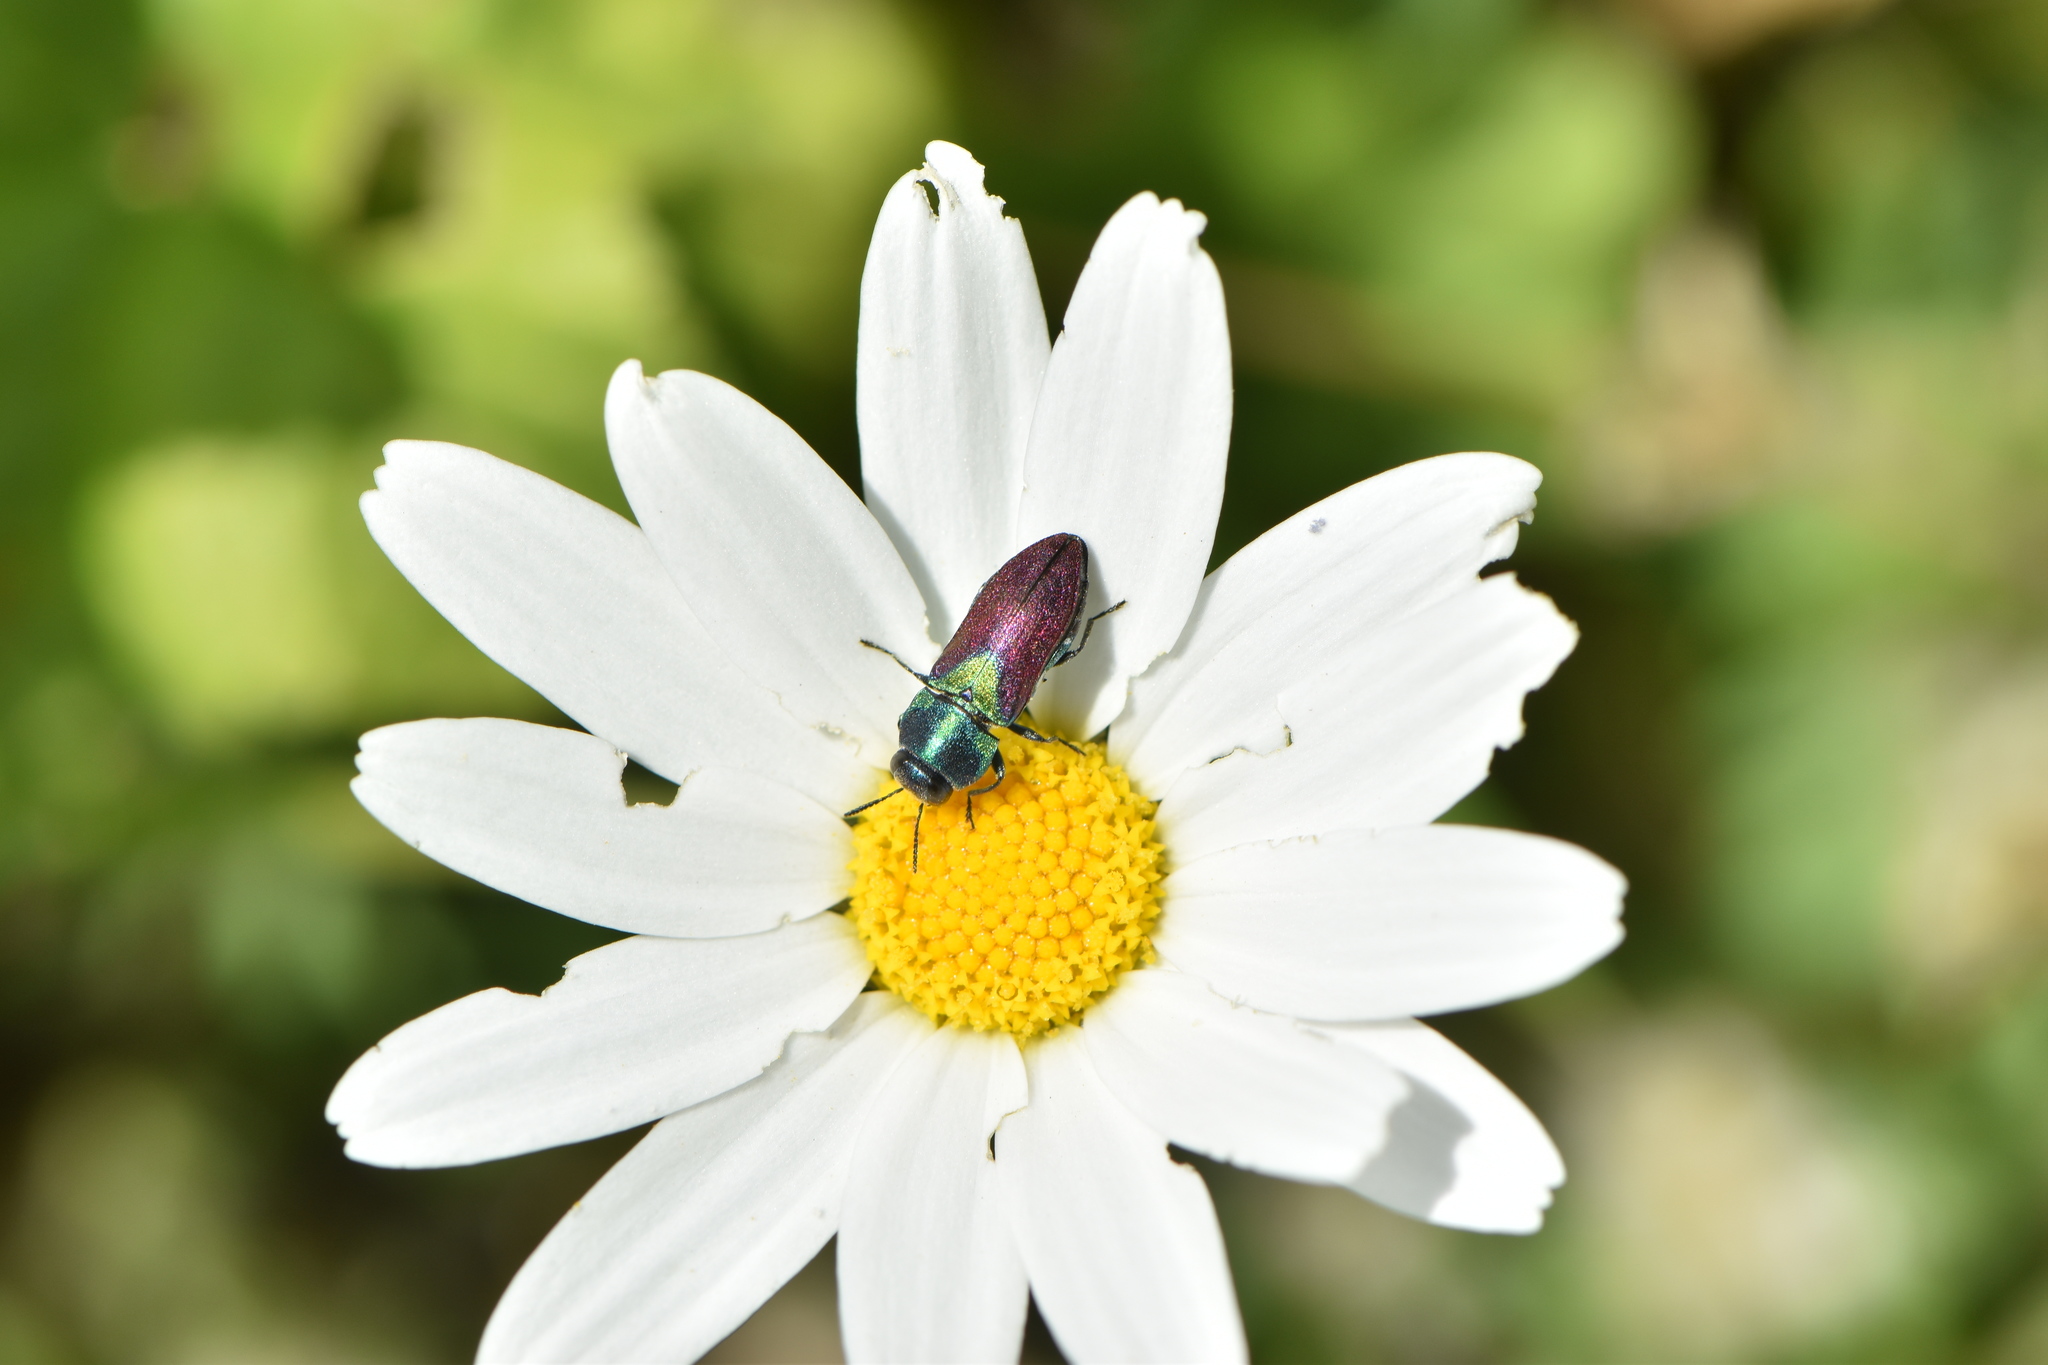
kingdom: Animalia
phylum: Arthropoda
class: Insecta
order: Coleoptera
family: Buprestidae
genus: Anthaxia
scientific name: Anthaxia salicis
